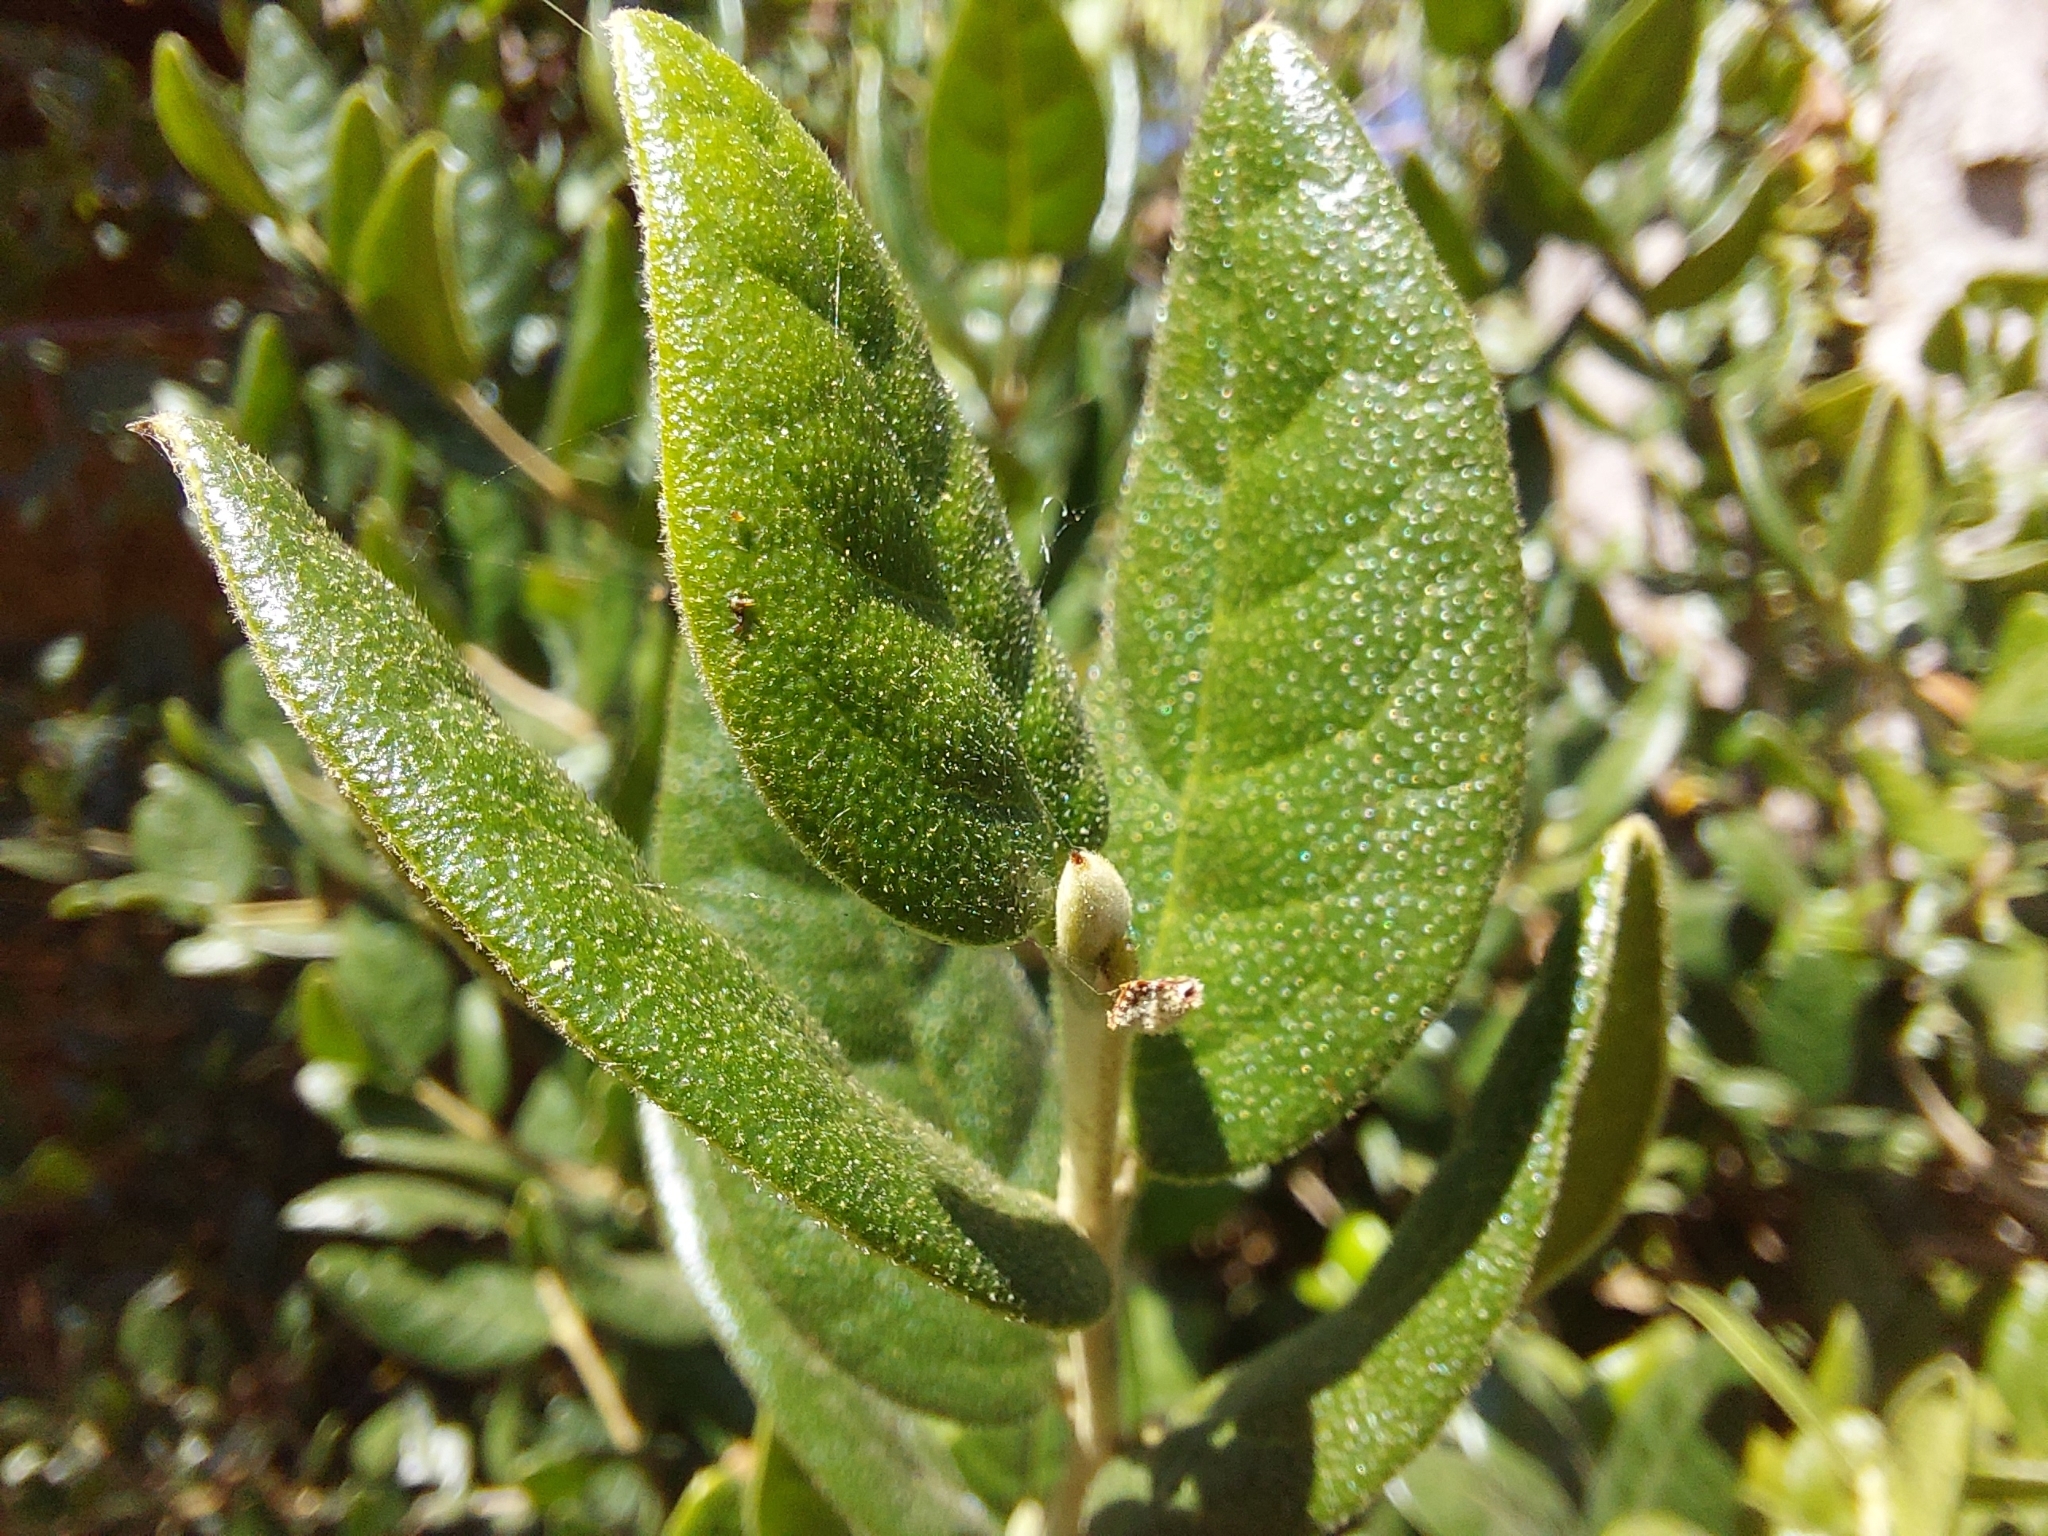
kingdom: Plantae
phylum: Tracheophyta
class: Magnoliopsida
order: Laurales
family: Monimiaceae
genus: Peumus
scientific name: Peumus boldus
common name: Boldo
